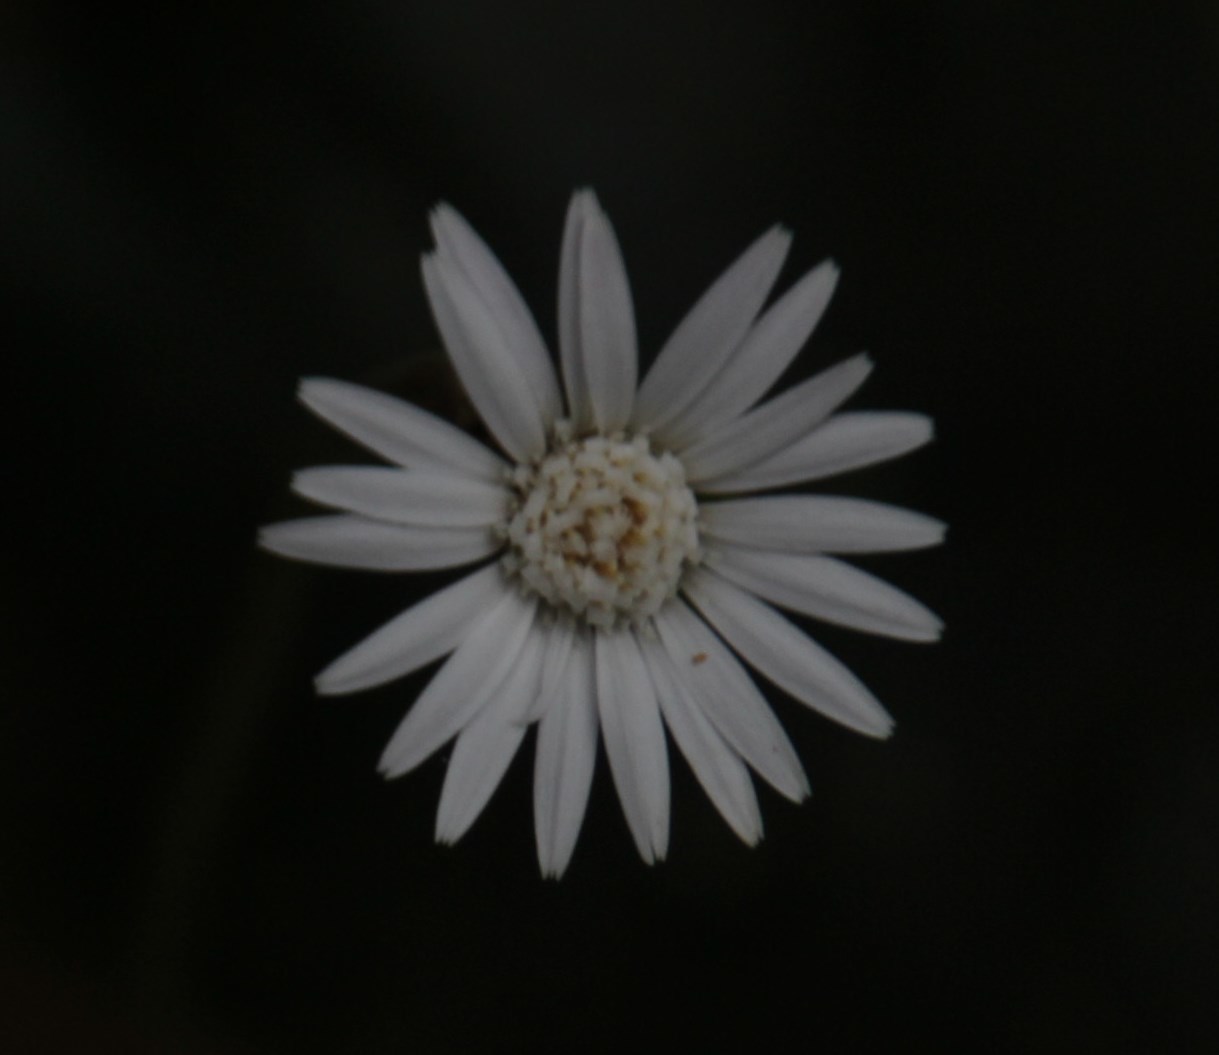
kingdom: Plantae
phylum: Tracheophyta
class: Magnoliopsida
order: Asterales
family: Asteraceae
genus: Piloselloides
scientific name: Piloselloides cordata
